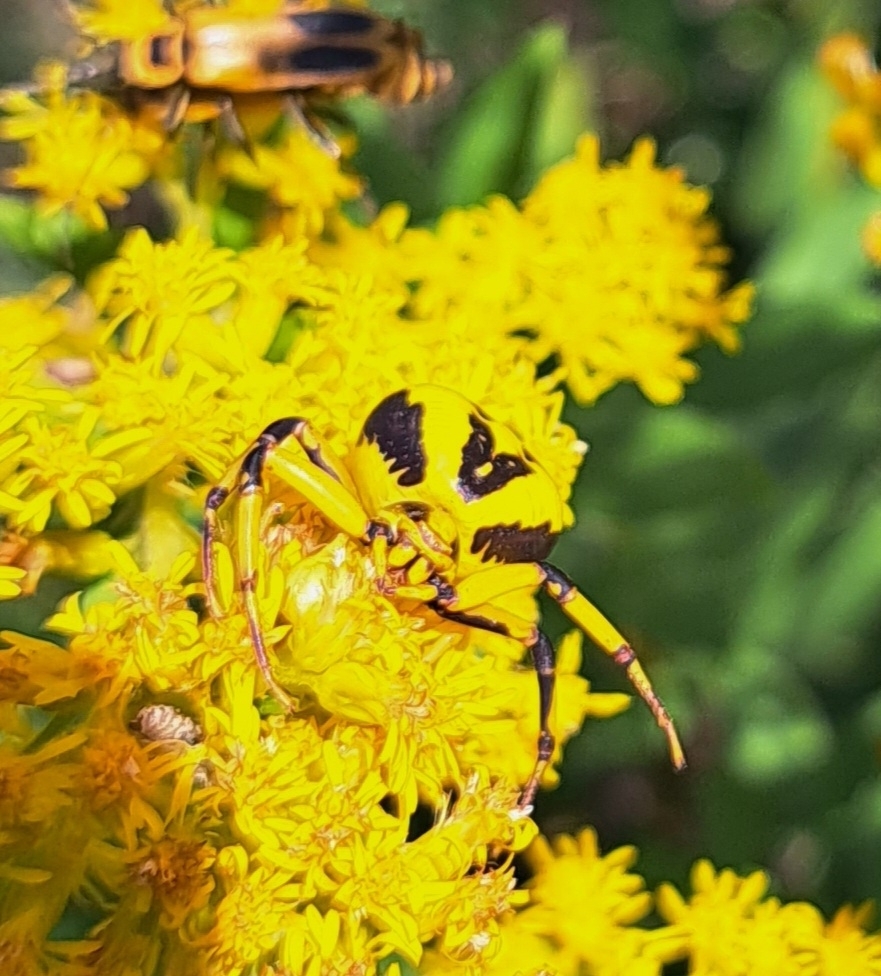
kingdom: Animalia
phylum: Arthropoda
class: Arachnida
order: Araneae
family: Thomisidae
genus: Misumenoides
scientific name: Misumenoides formosipes
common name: White-banded crab spider
